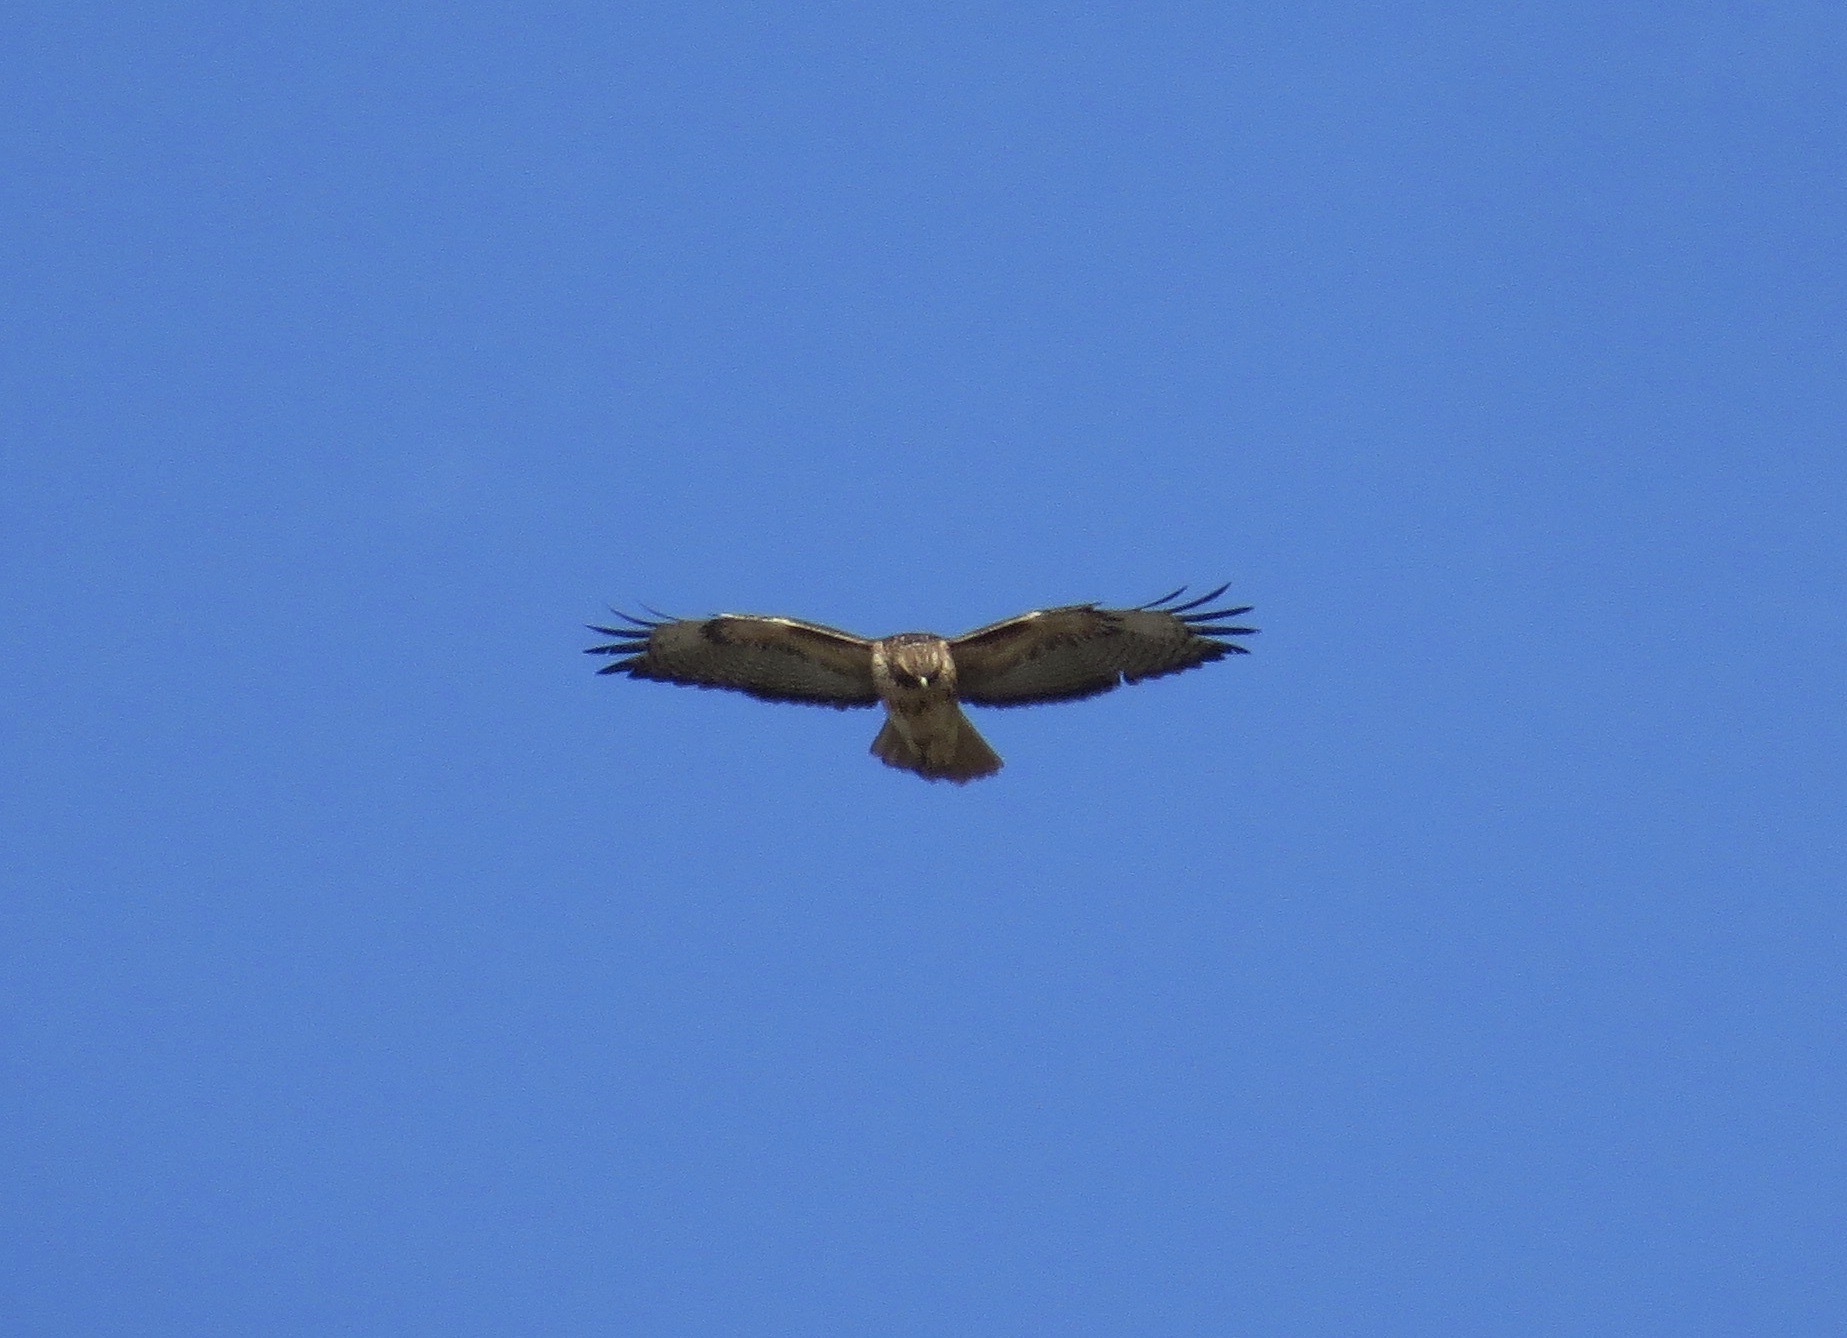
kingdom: Animalia
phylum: Chordata
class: Aves
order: Accipitriformes
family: Accipitridae
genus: Buteo
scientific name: Buteo jamaicensis
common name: Red-tailed hawk
